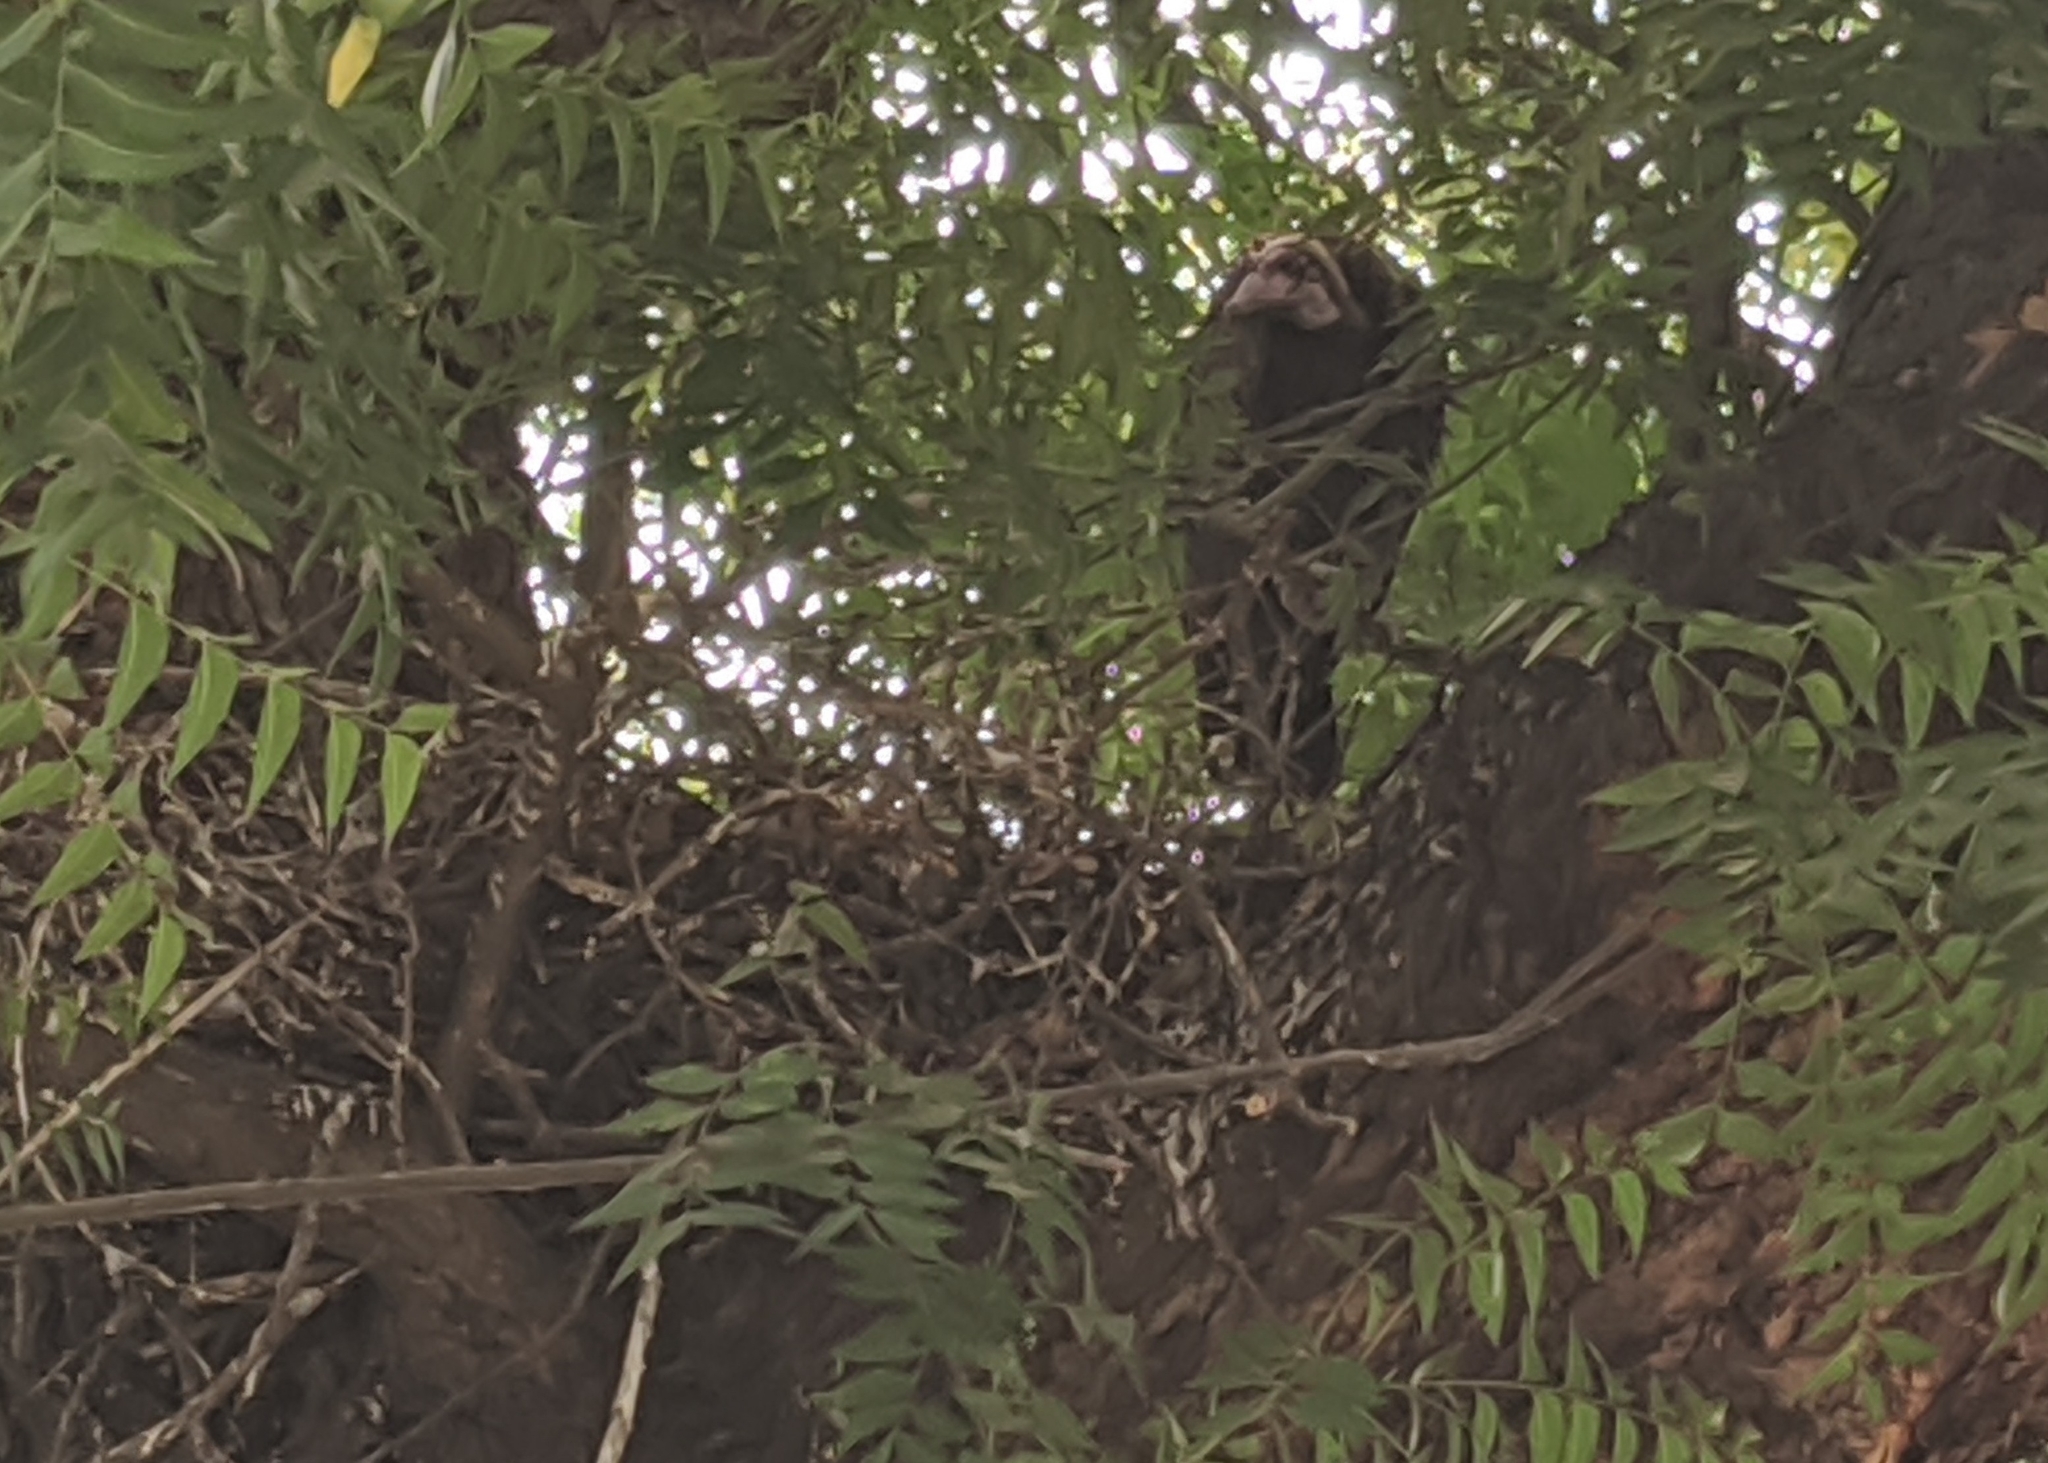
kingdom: Animalia
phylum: Chordata
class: Aves
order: Accipitriformes
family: Accipitridae
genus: Necrosyrtes
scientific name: Necrosyrtes monachus
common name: Hooded vulture
